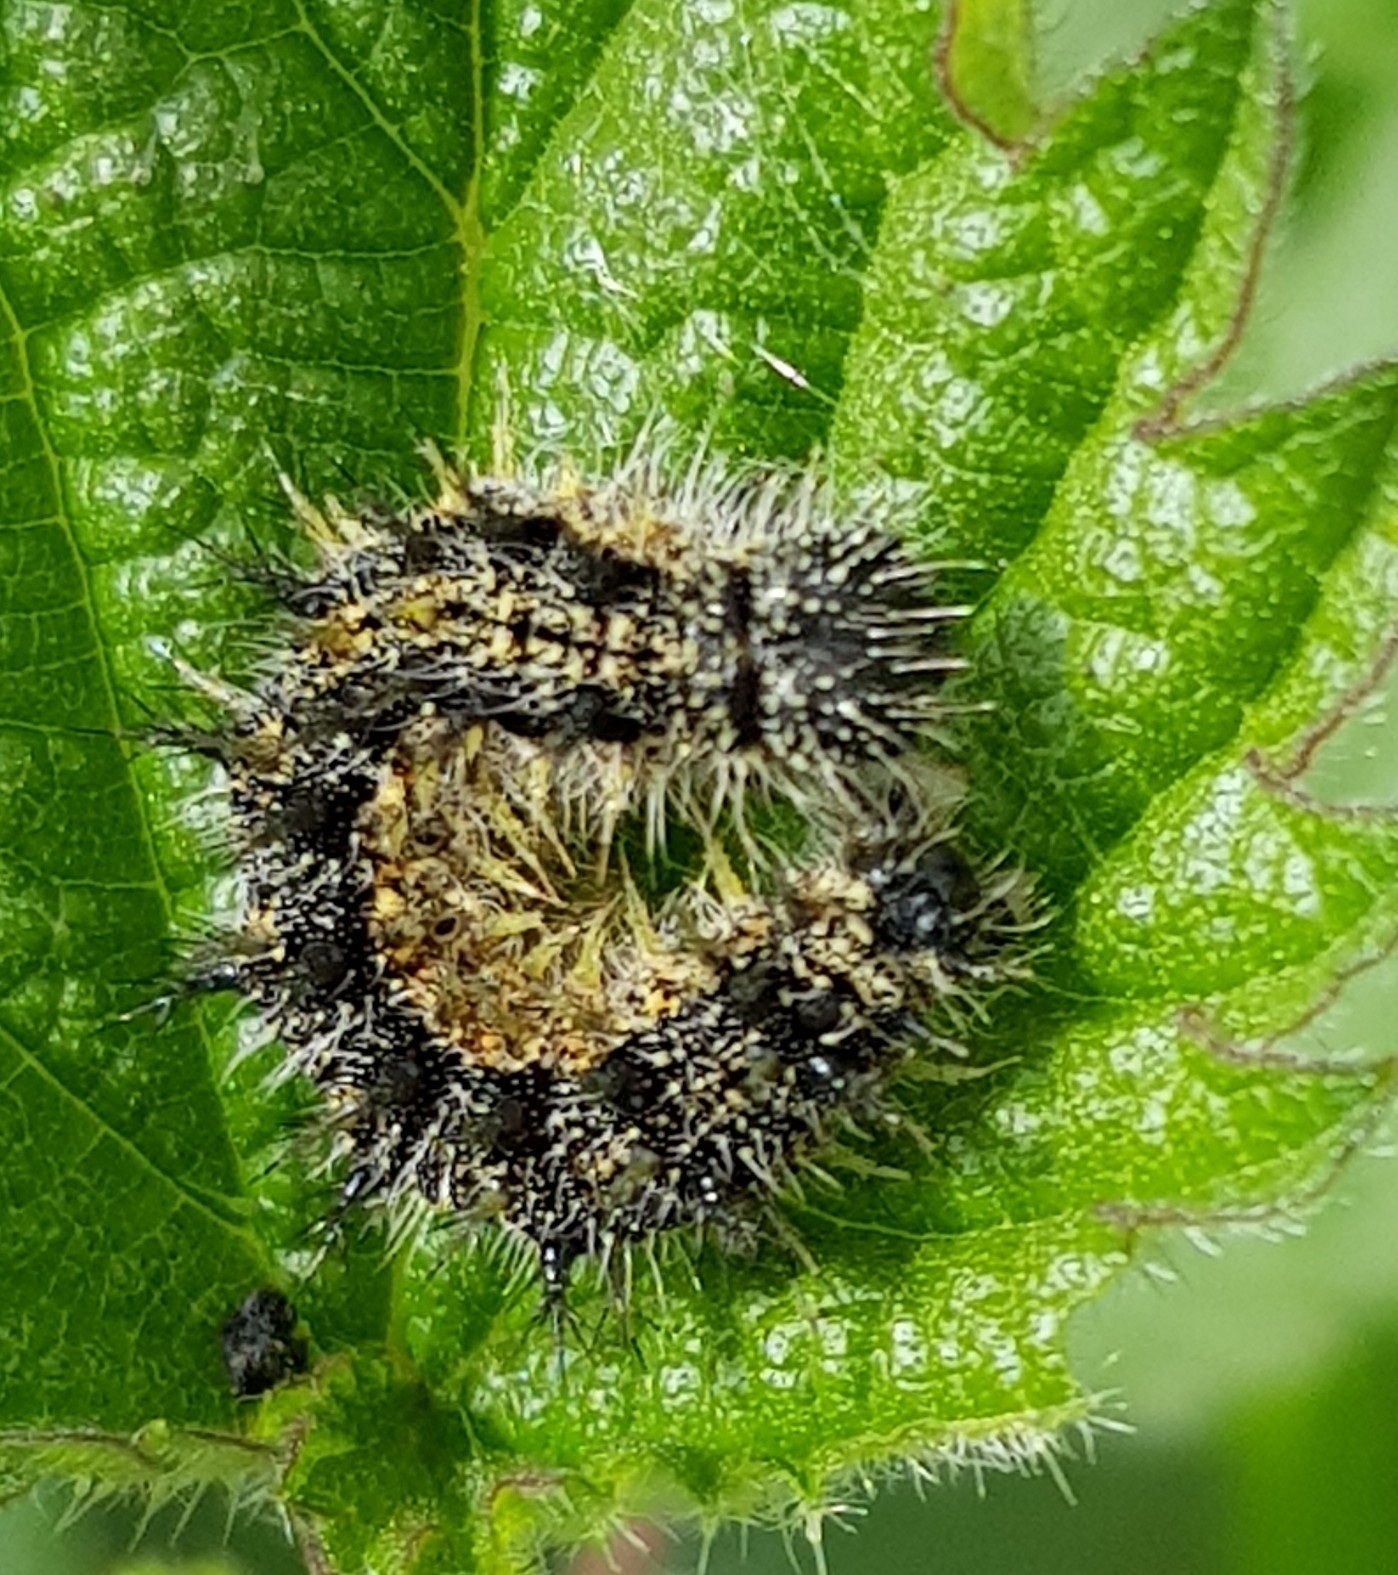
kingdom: Animalia
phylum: Arthropoda
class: Insecta
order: Lepidoptera
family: Nymphalidae
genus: Aglais
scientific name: Aglais urticae
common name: Small tortoiseshell
